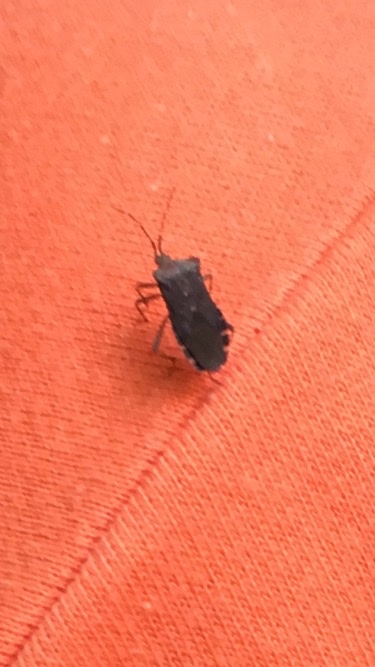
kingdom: Animalia
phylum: Arthropoda
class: Insecta
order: Hemiptera
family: Coreidae
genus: Anasa
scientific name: Anasa armigera
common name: Horned squash bug
